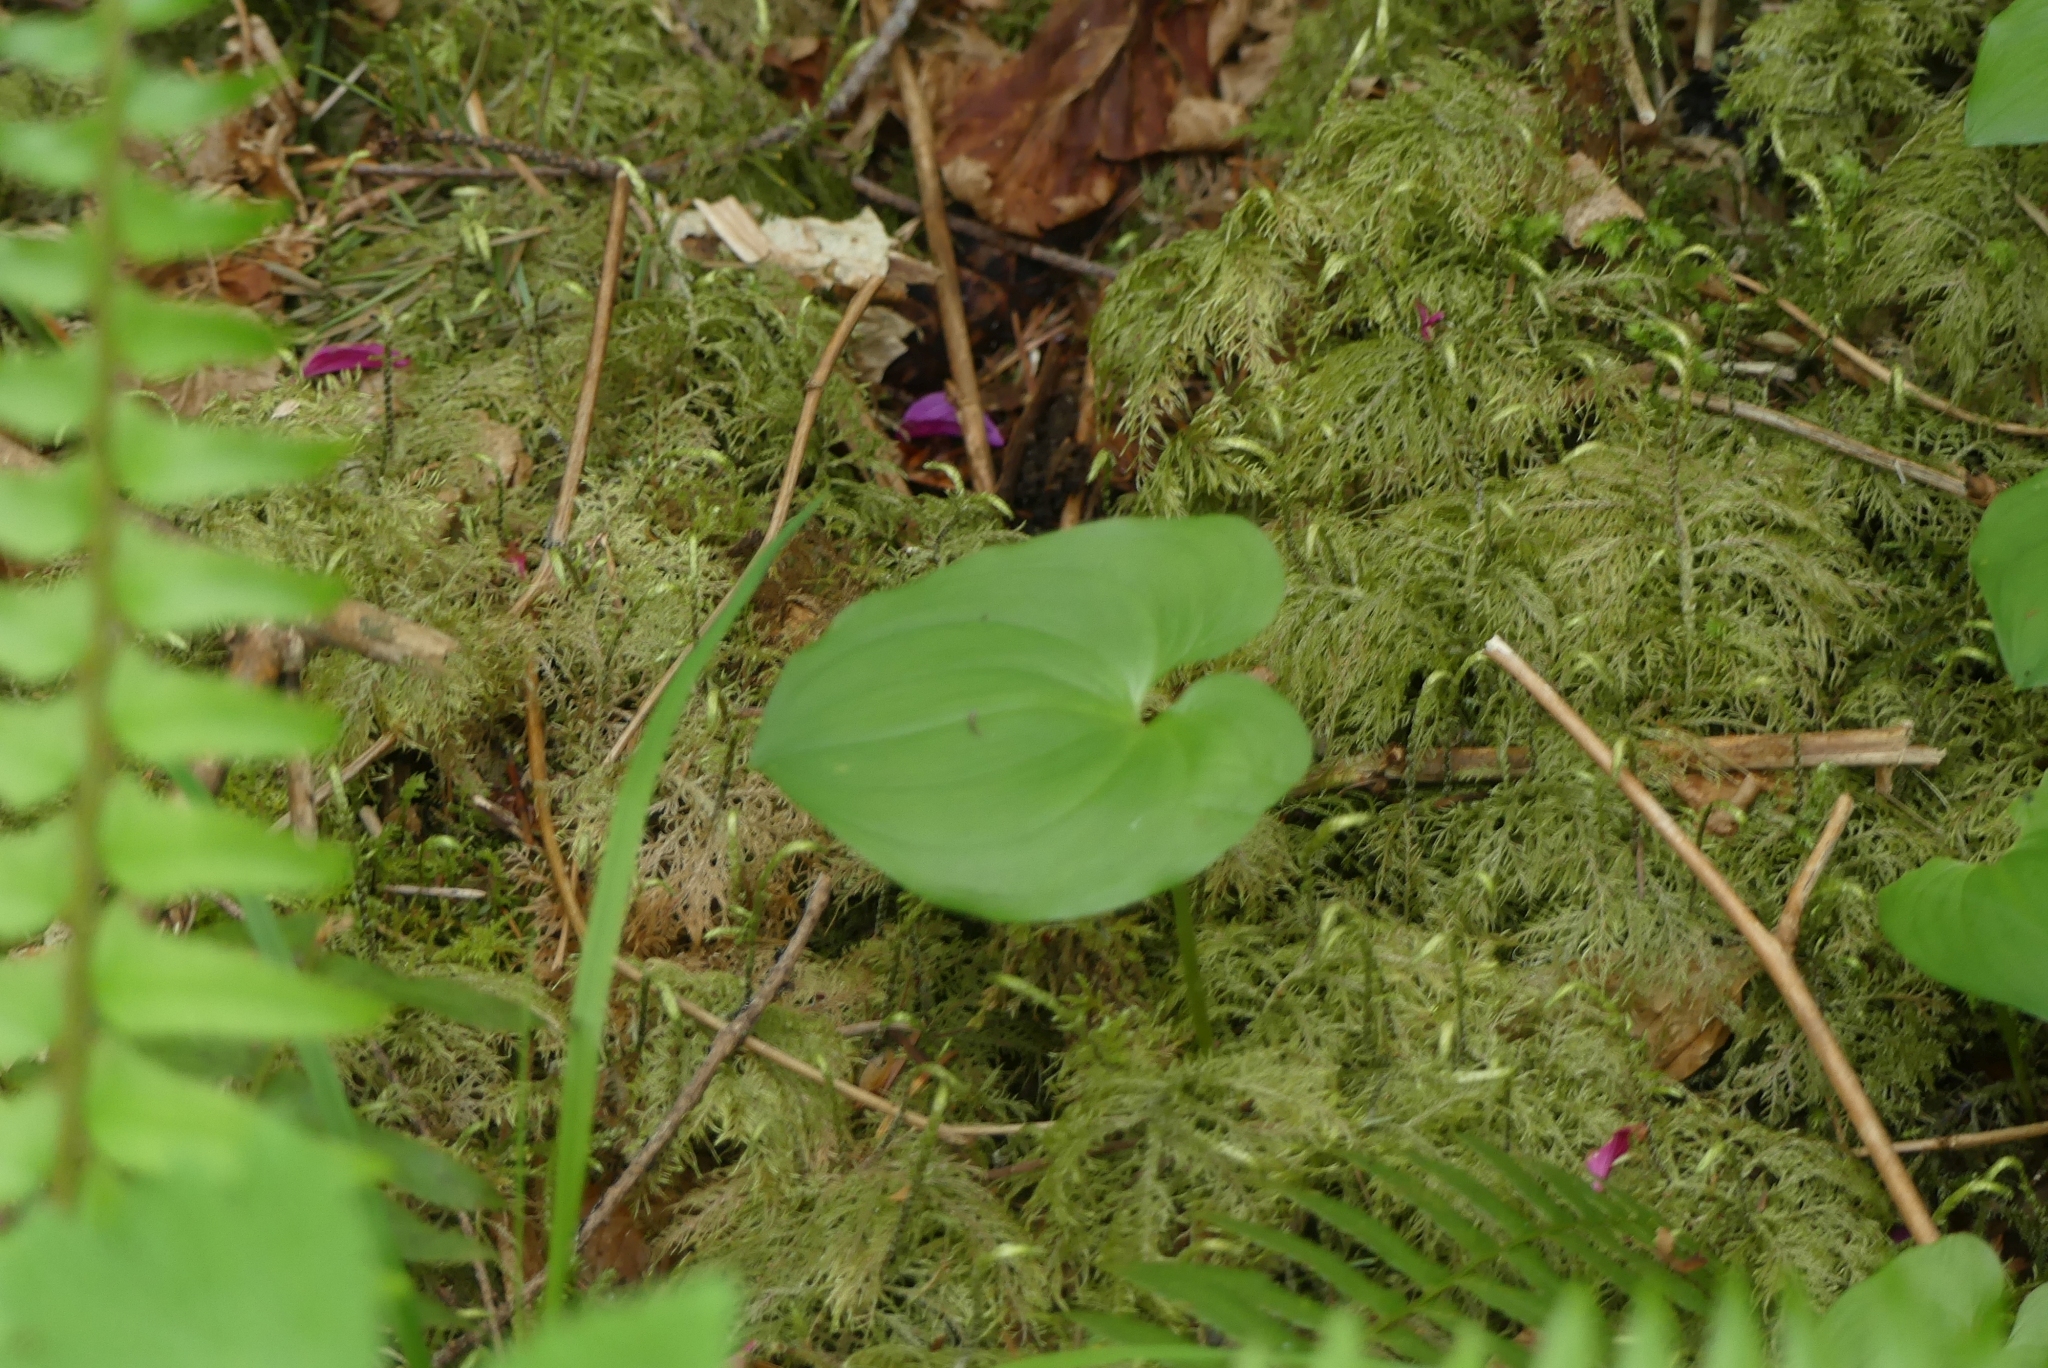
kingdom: Plantae
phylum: Tracheophyta
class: Liliopsida
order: Asparagales
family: Asparagaceae
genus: Maianthemum
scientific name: Maianthemum dilatatum
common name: False lily-of-the-valley
